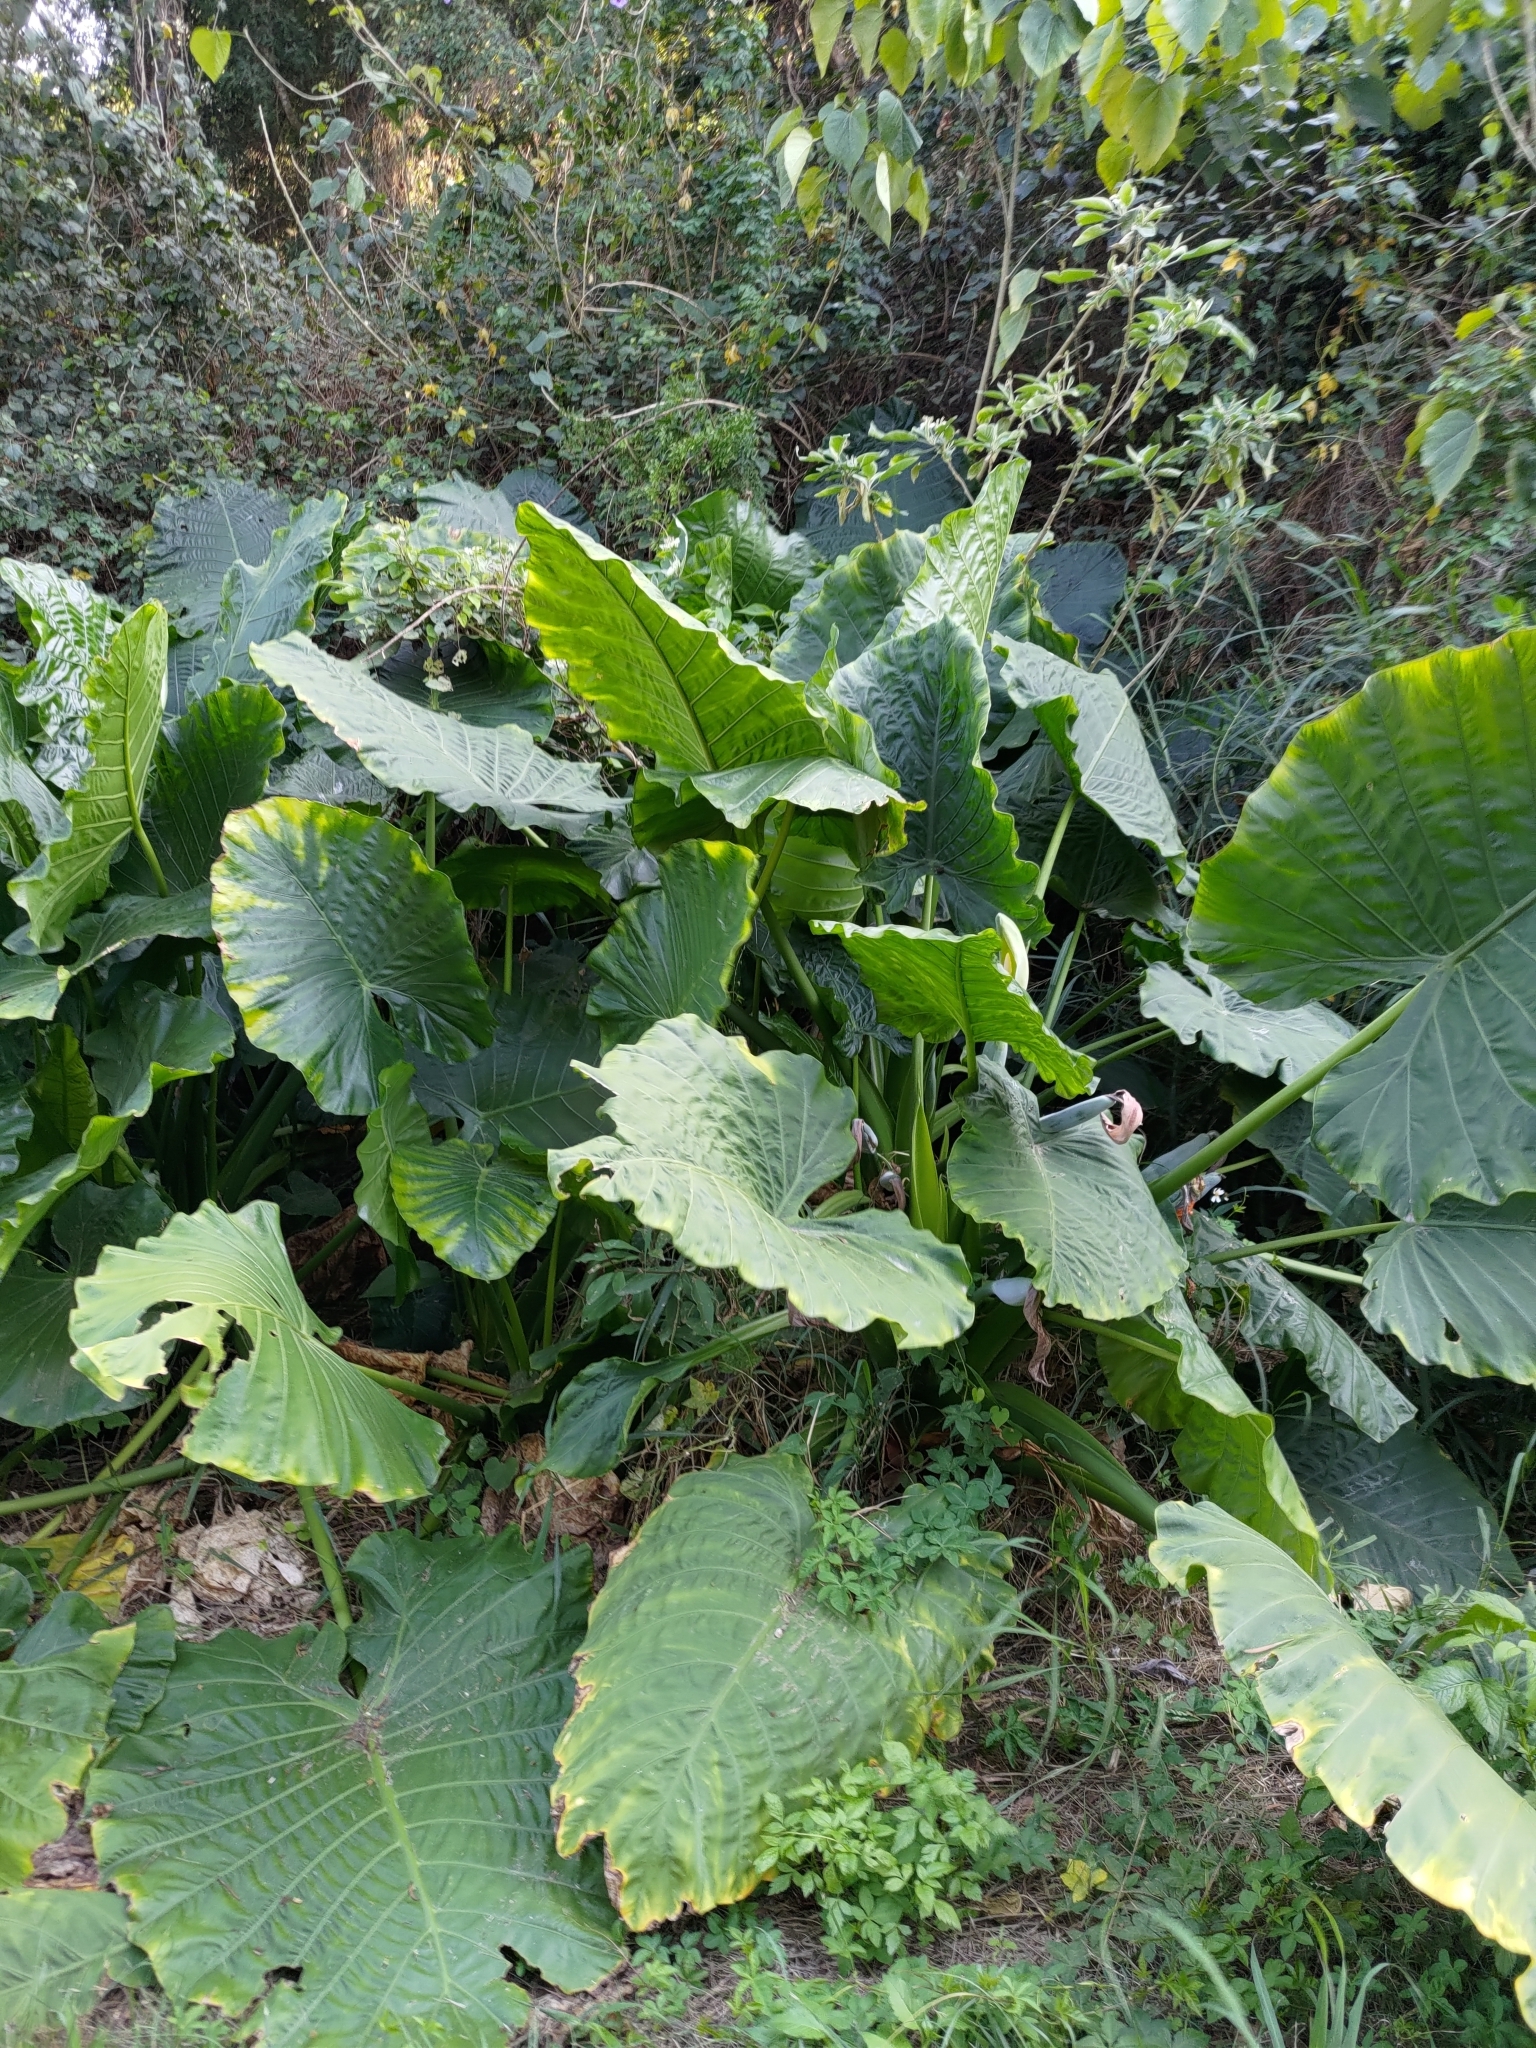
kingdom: Plantae
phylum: Tracheophyta
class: Liliopsida
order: Alismatales
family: Araceae
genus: Alocasia
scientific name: Alocasia odora
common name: Asian taro
